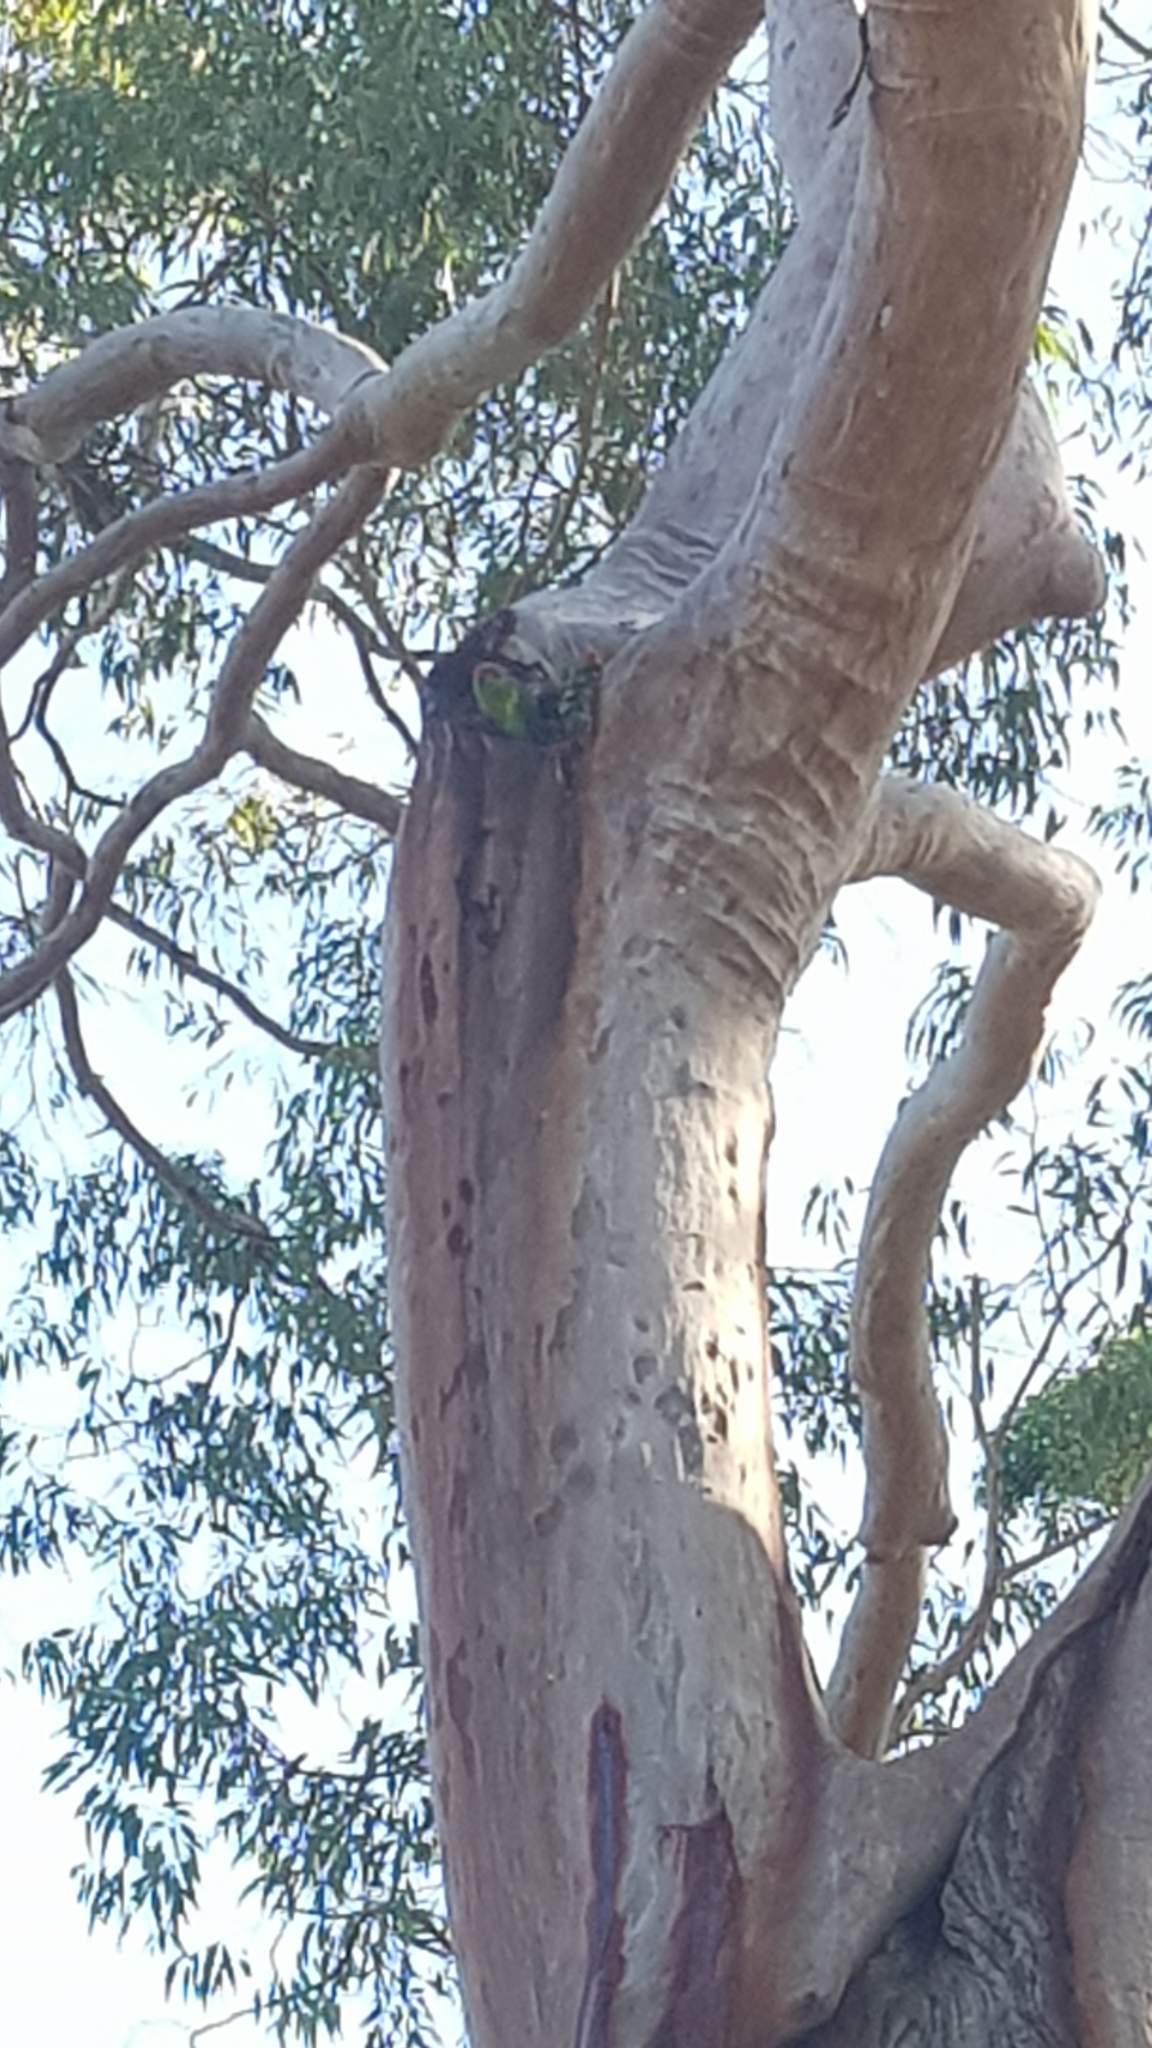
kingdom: Animalia
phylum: Chordata
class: Aves
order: Psittaciformes
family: Psittacidae
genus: Glossopsitta
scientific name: Glossopsitta concinna
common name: Musk lorikeet
